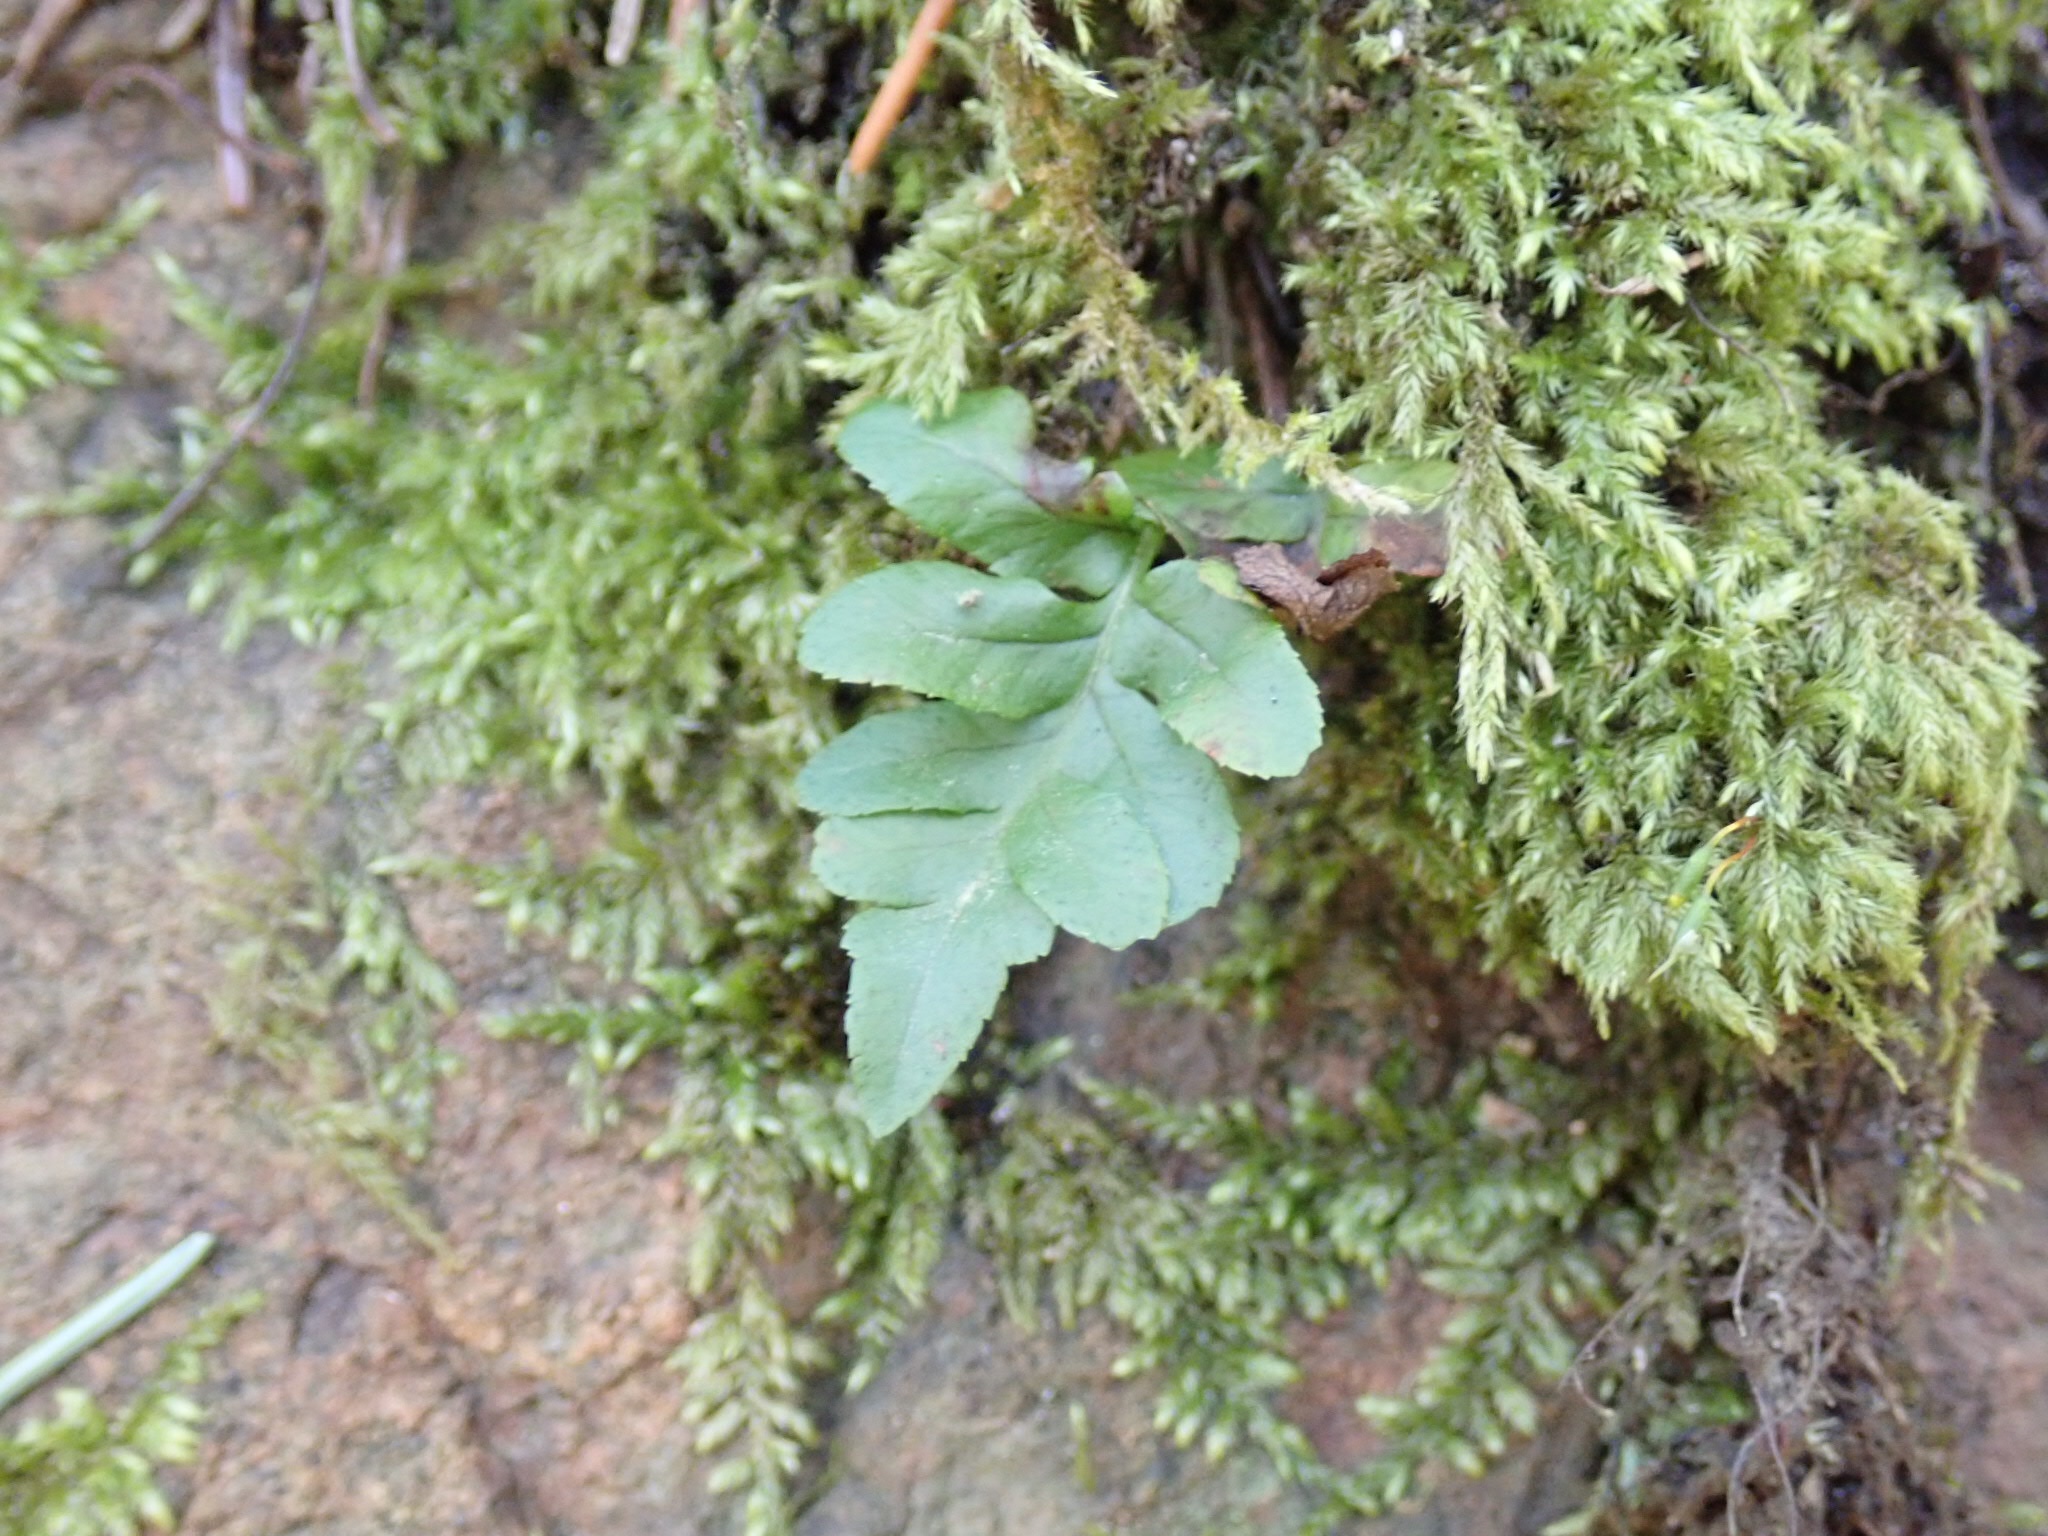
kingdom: Plantae
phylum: Tracheophyta
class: Polypodiopsida
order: Polypodiales
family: Polypodiaceae
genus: Polypodium
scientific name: Polypodium glycyrrhiza
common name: Licorice fern
